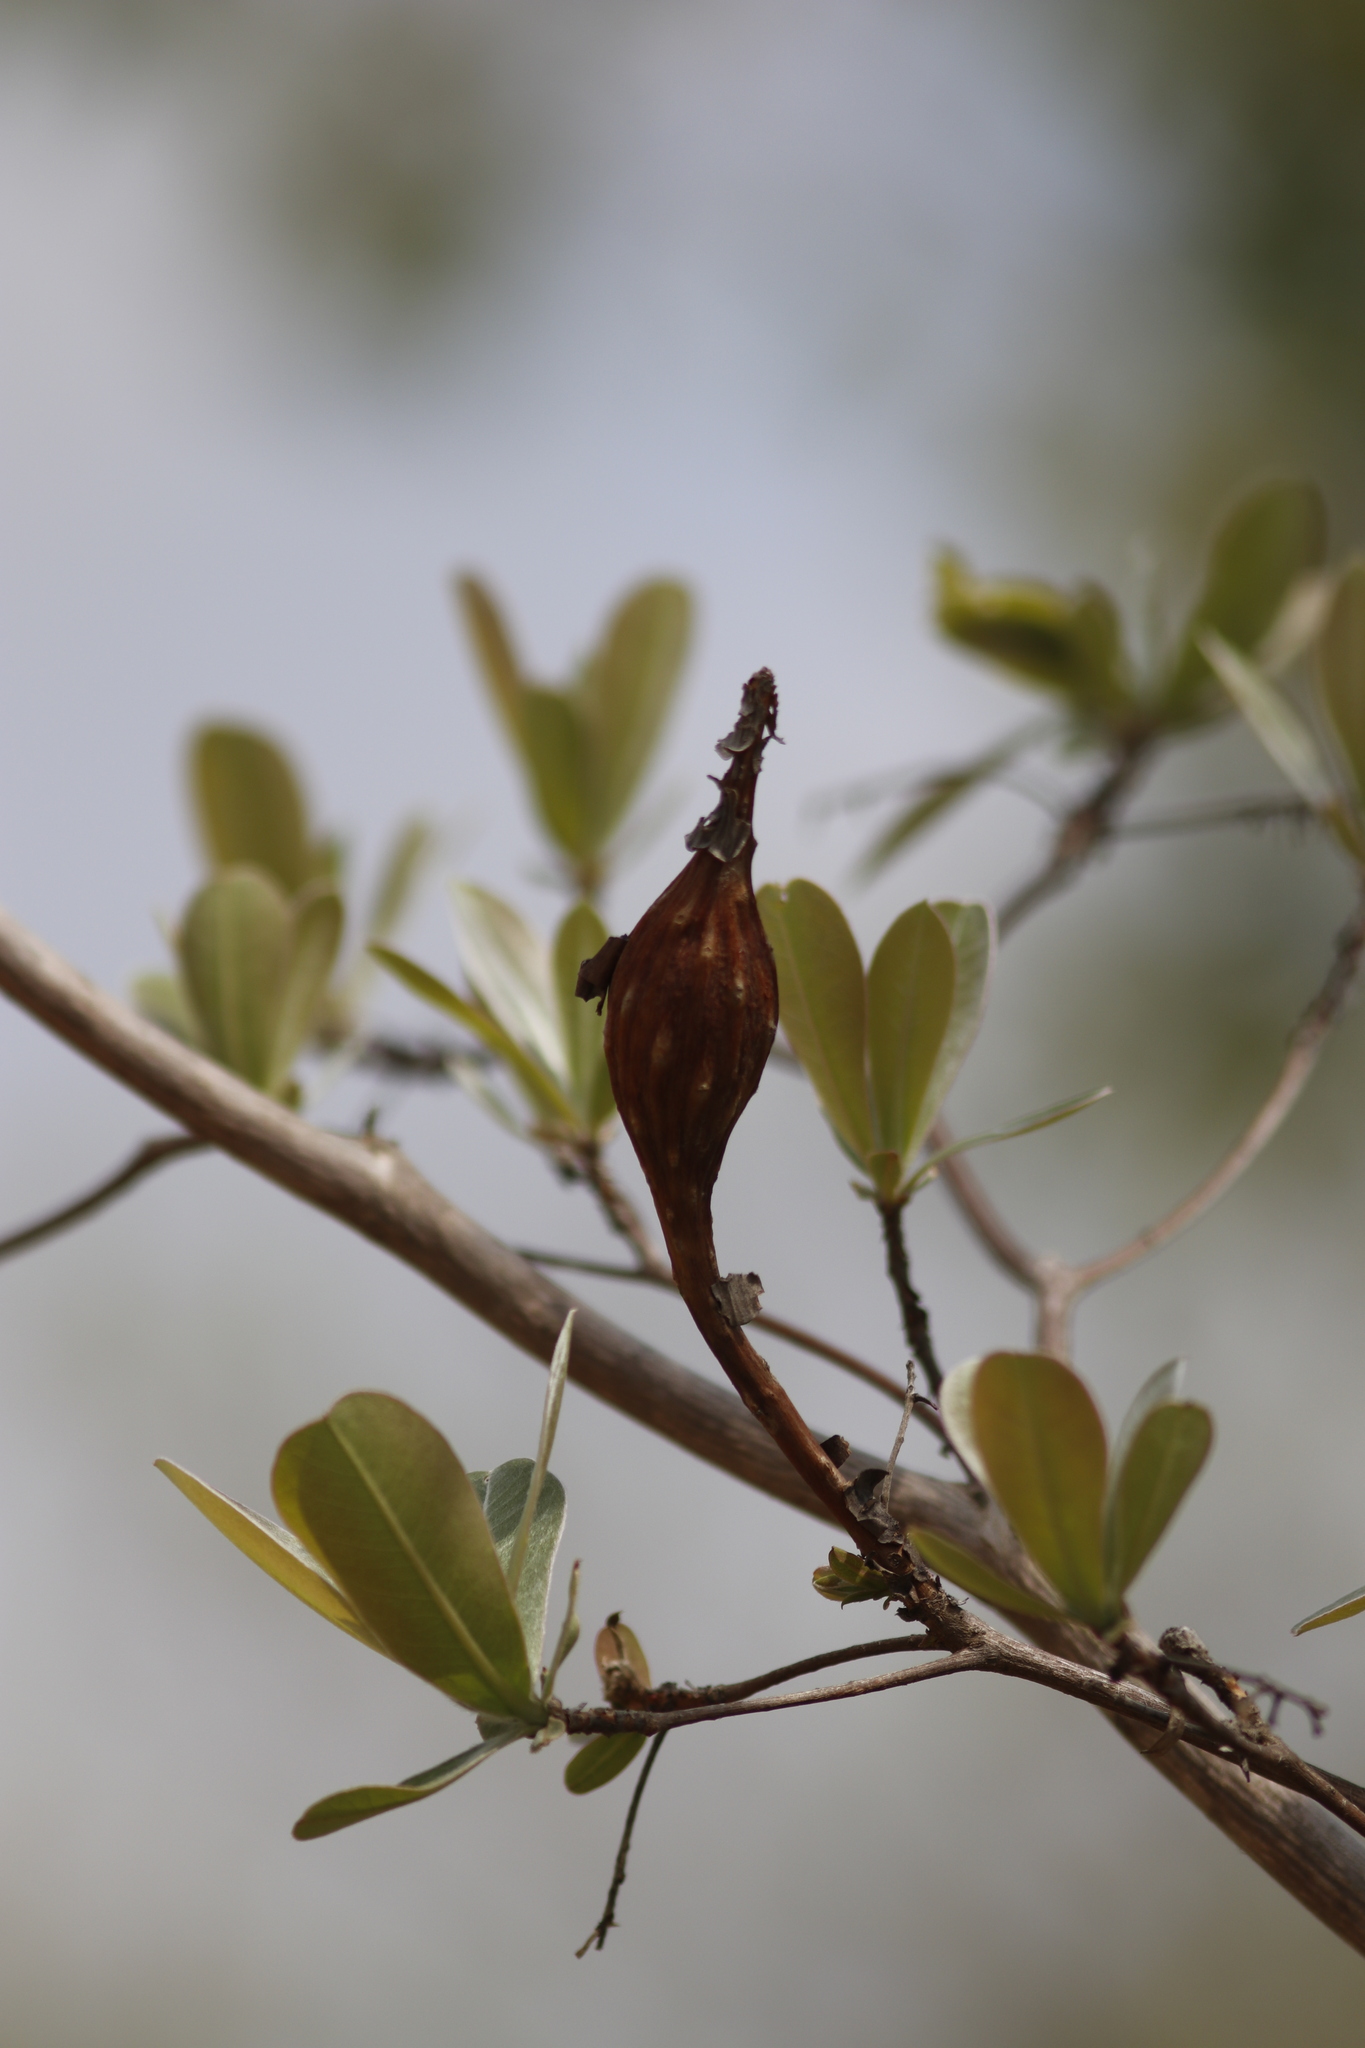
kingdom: Plantae
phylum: Tracheophyta
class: Magnoliopsida
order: Myrtales
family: Combretaceae
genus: Terminalia
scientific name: Terminalia sericea
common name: Clusterleaf
